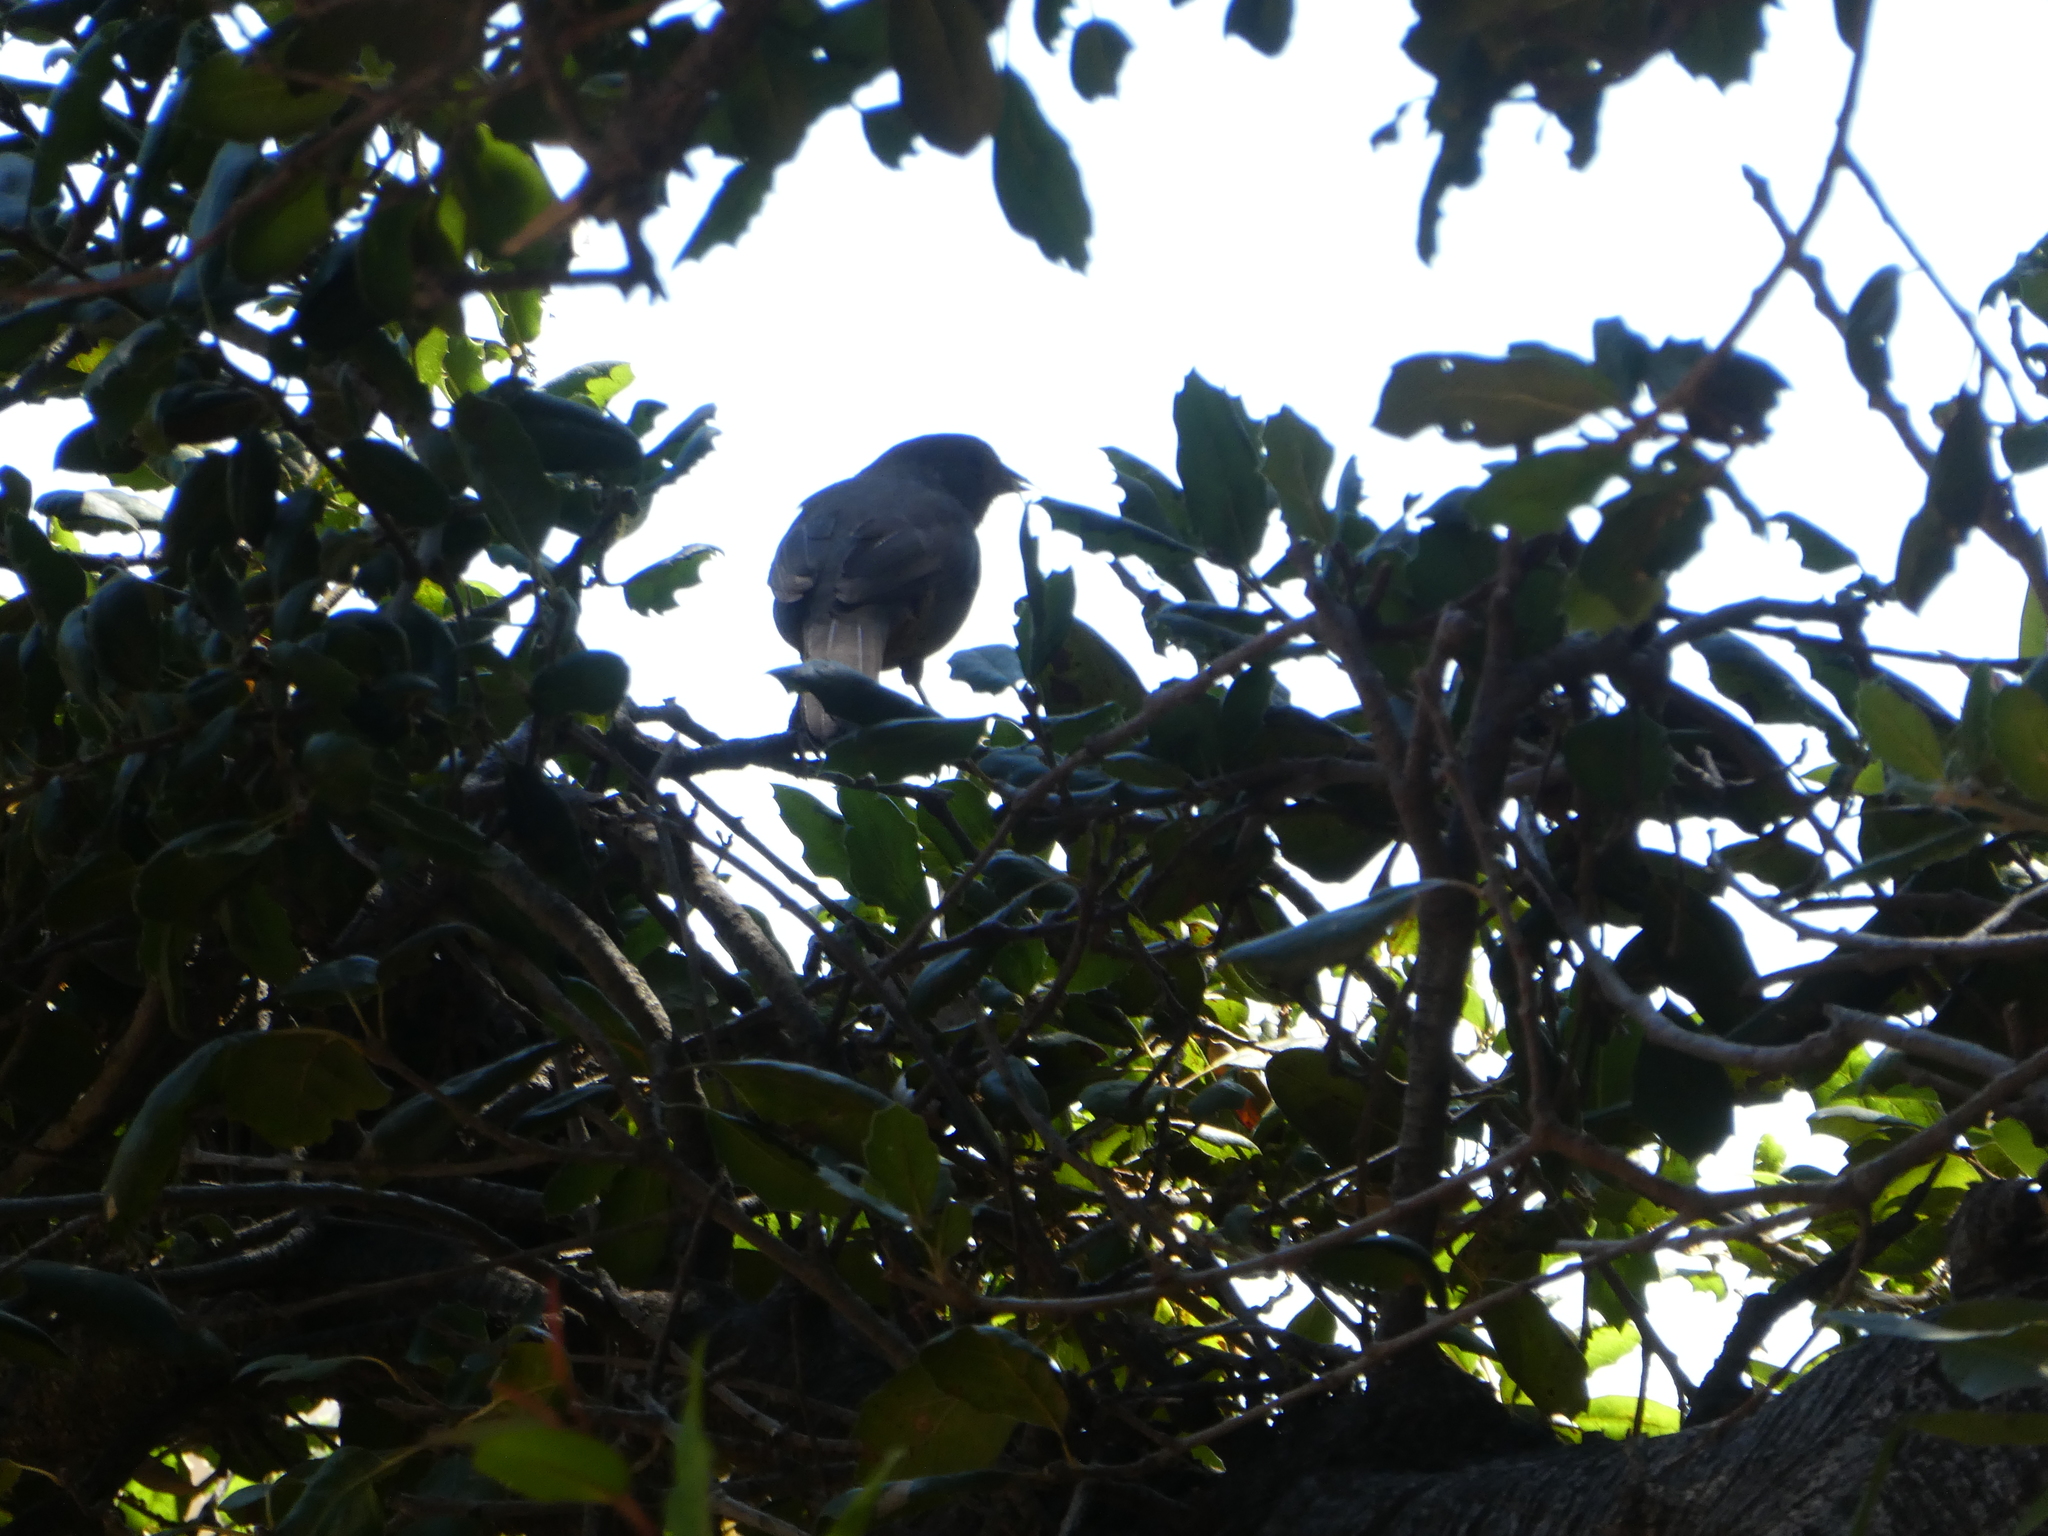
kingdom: Animalia
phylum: Chordata
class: Aves
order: Passeriformes
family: Passerellidae
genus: Melozone
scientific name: Melozone crissalis
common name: California towhee
